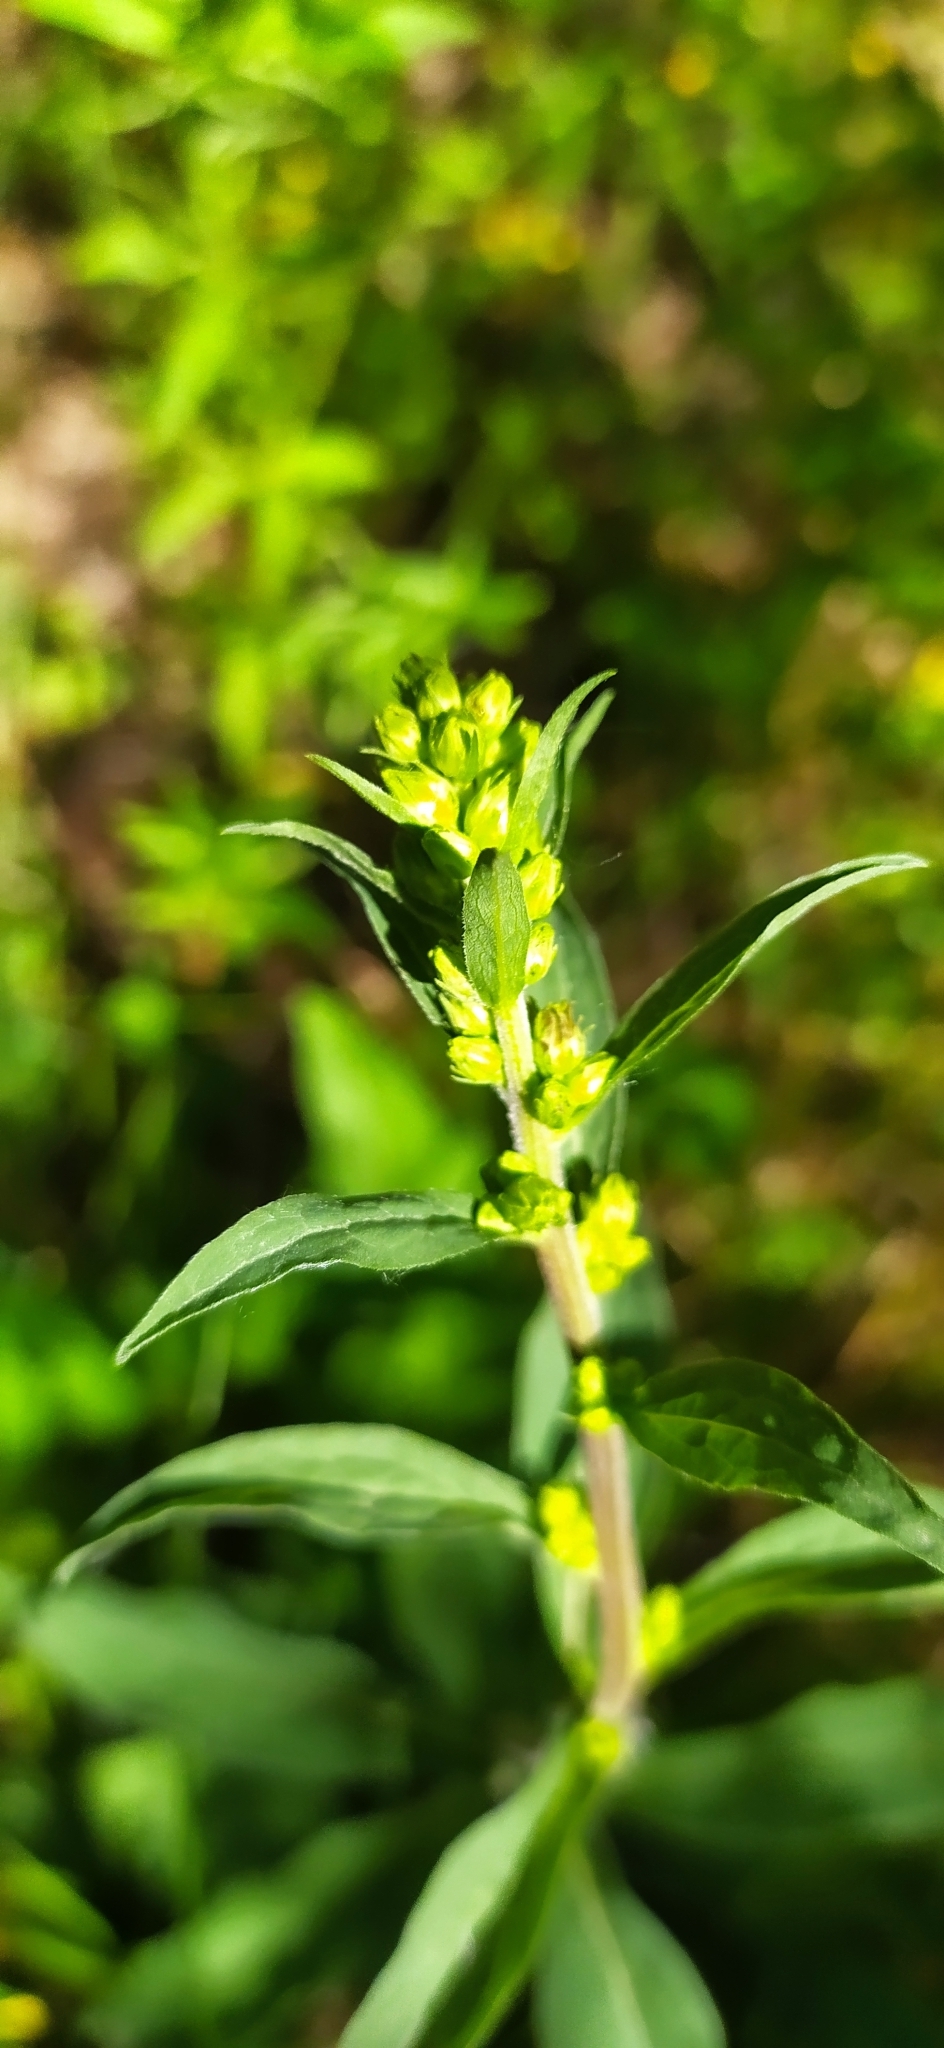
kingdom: Plantae
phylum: Tracheophyta
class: Magnoliopsida
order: Asterales
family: Asteraceae
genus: Solidago
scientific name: Solidago virgaurea
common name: Goldenrod
